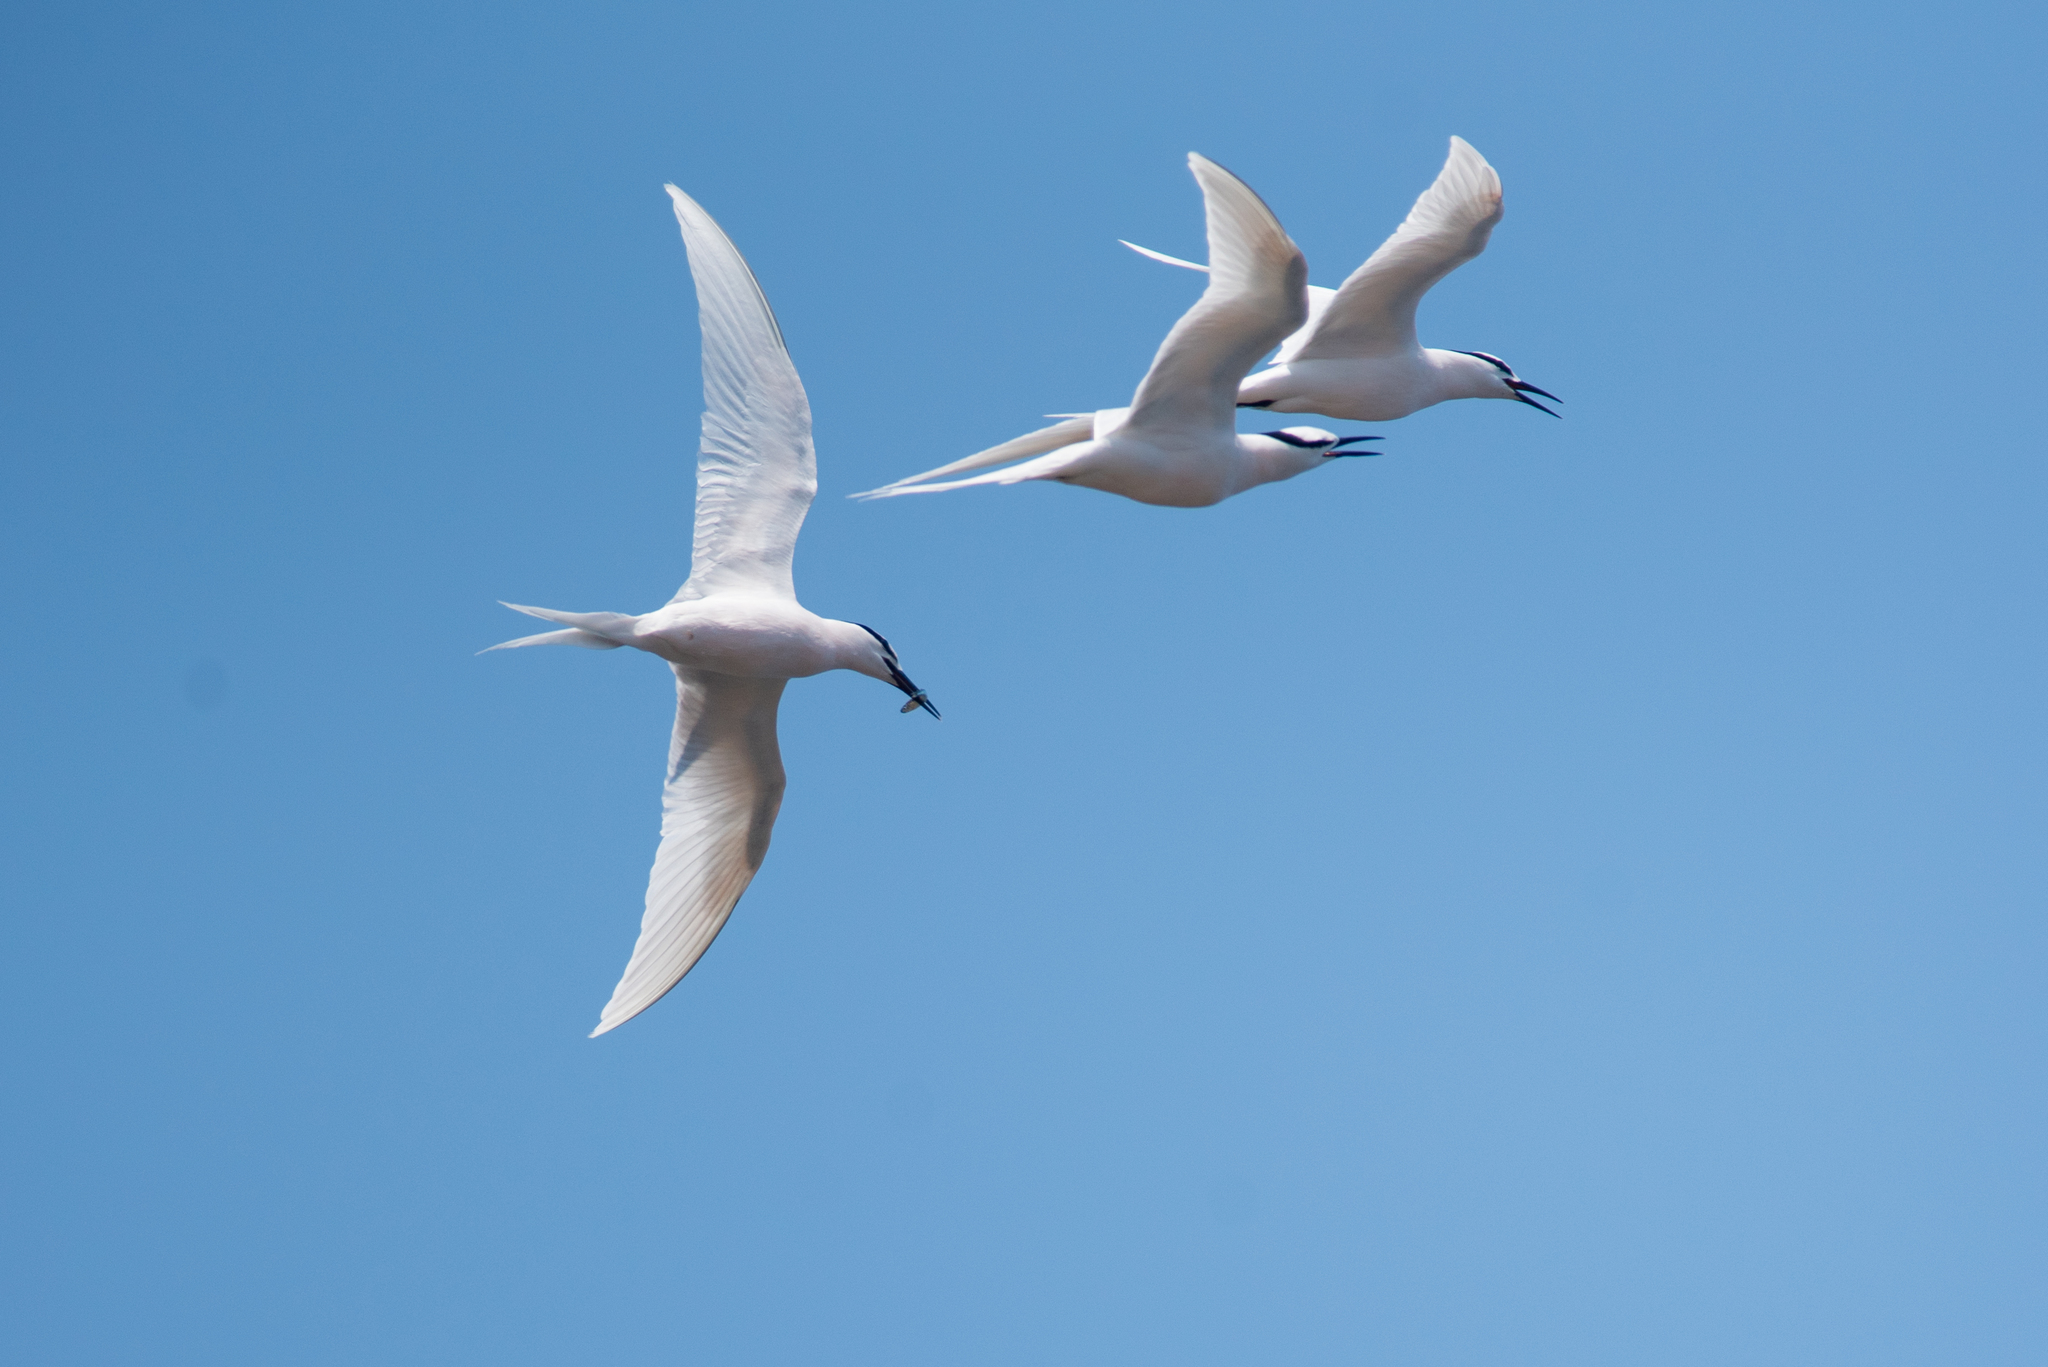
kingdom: Animalia
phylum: Chordata
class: Aves
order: Charadriiformes
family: Laridae
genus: Sterna
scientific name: Sterna sumatrana
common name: Black-naped tern
